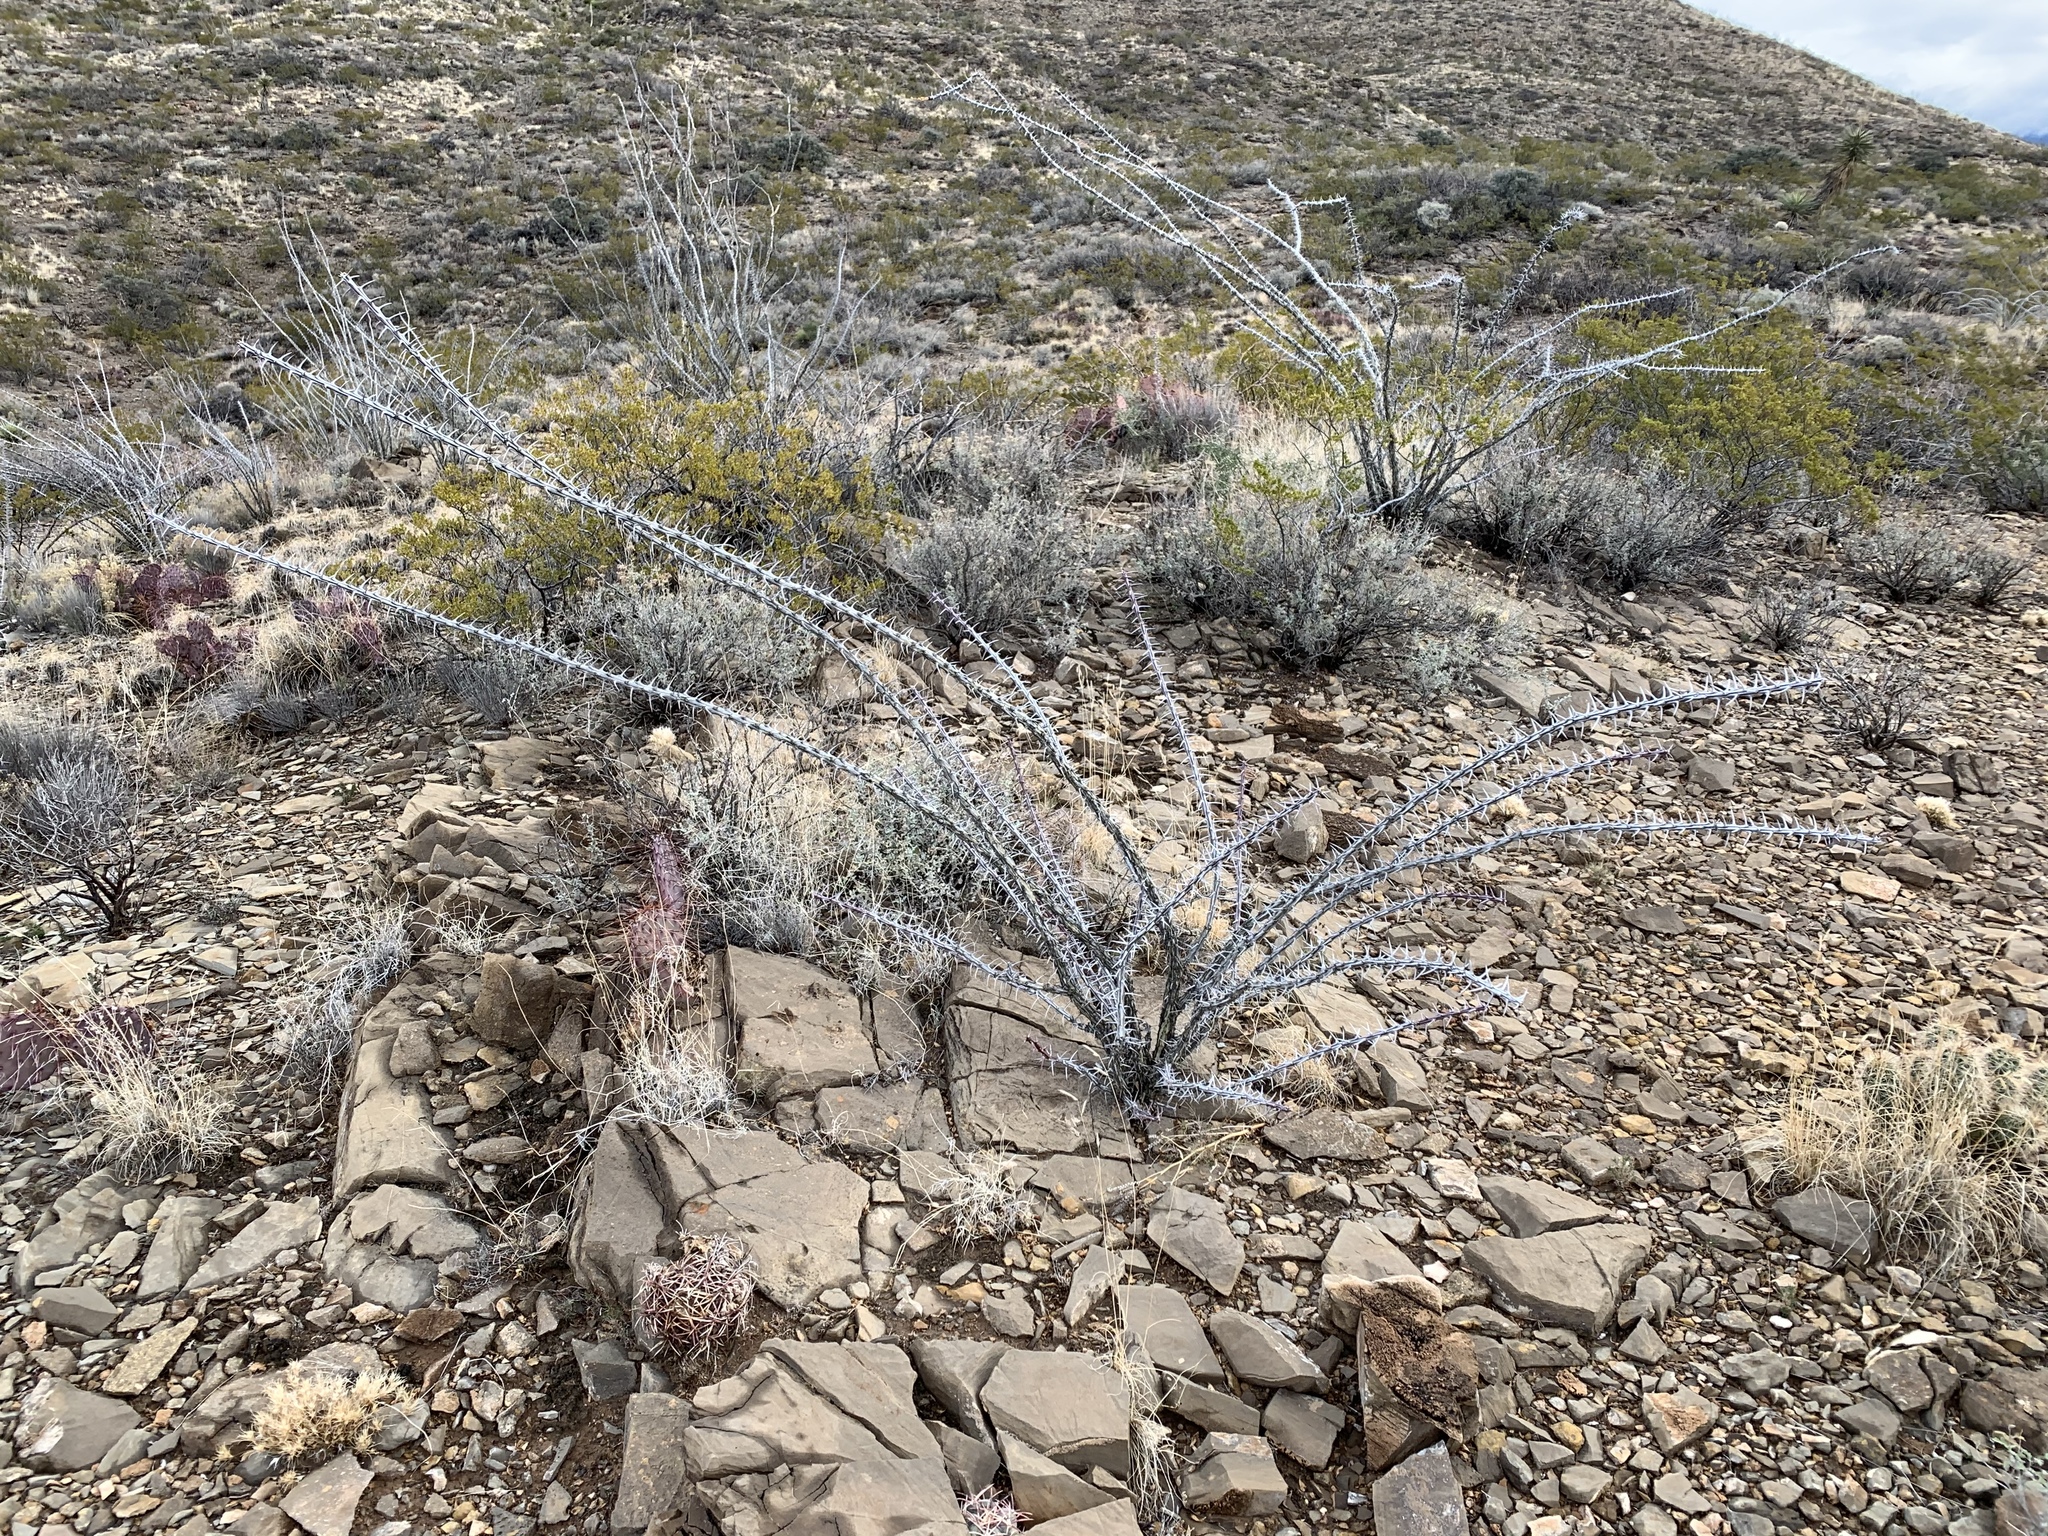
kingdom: Plantae
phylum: Tracheophyta
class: Magnoliopsida
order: Ericales
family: Fouquieriaceae
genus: Fouquieria
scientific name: Fouquieria splendens
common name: Vine-cactus
